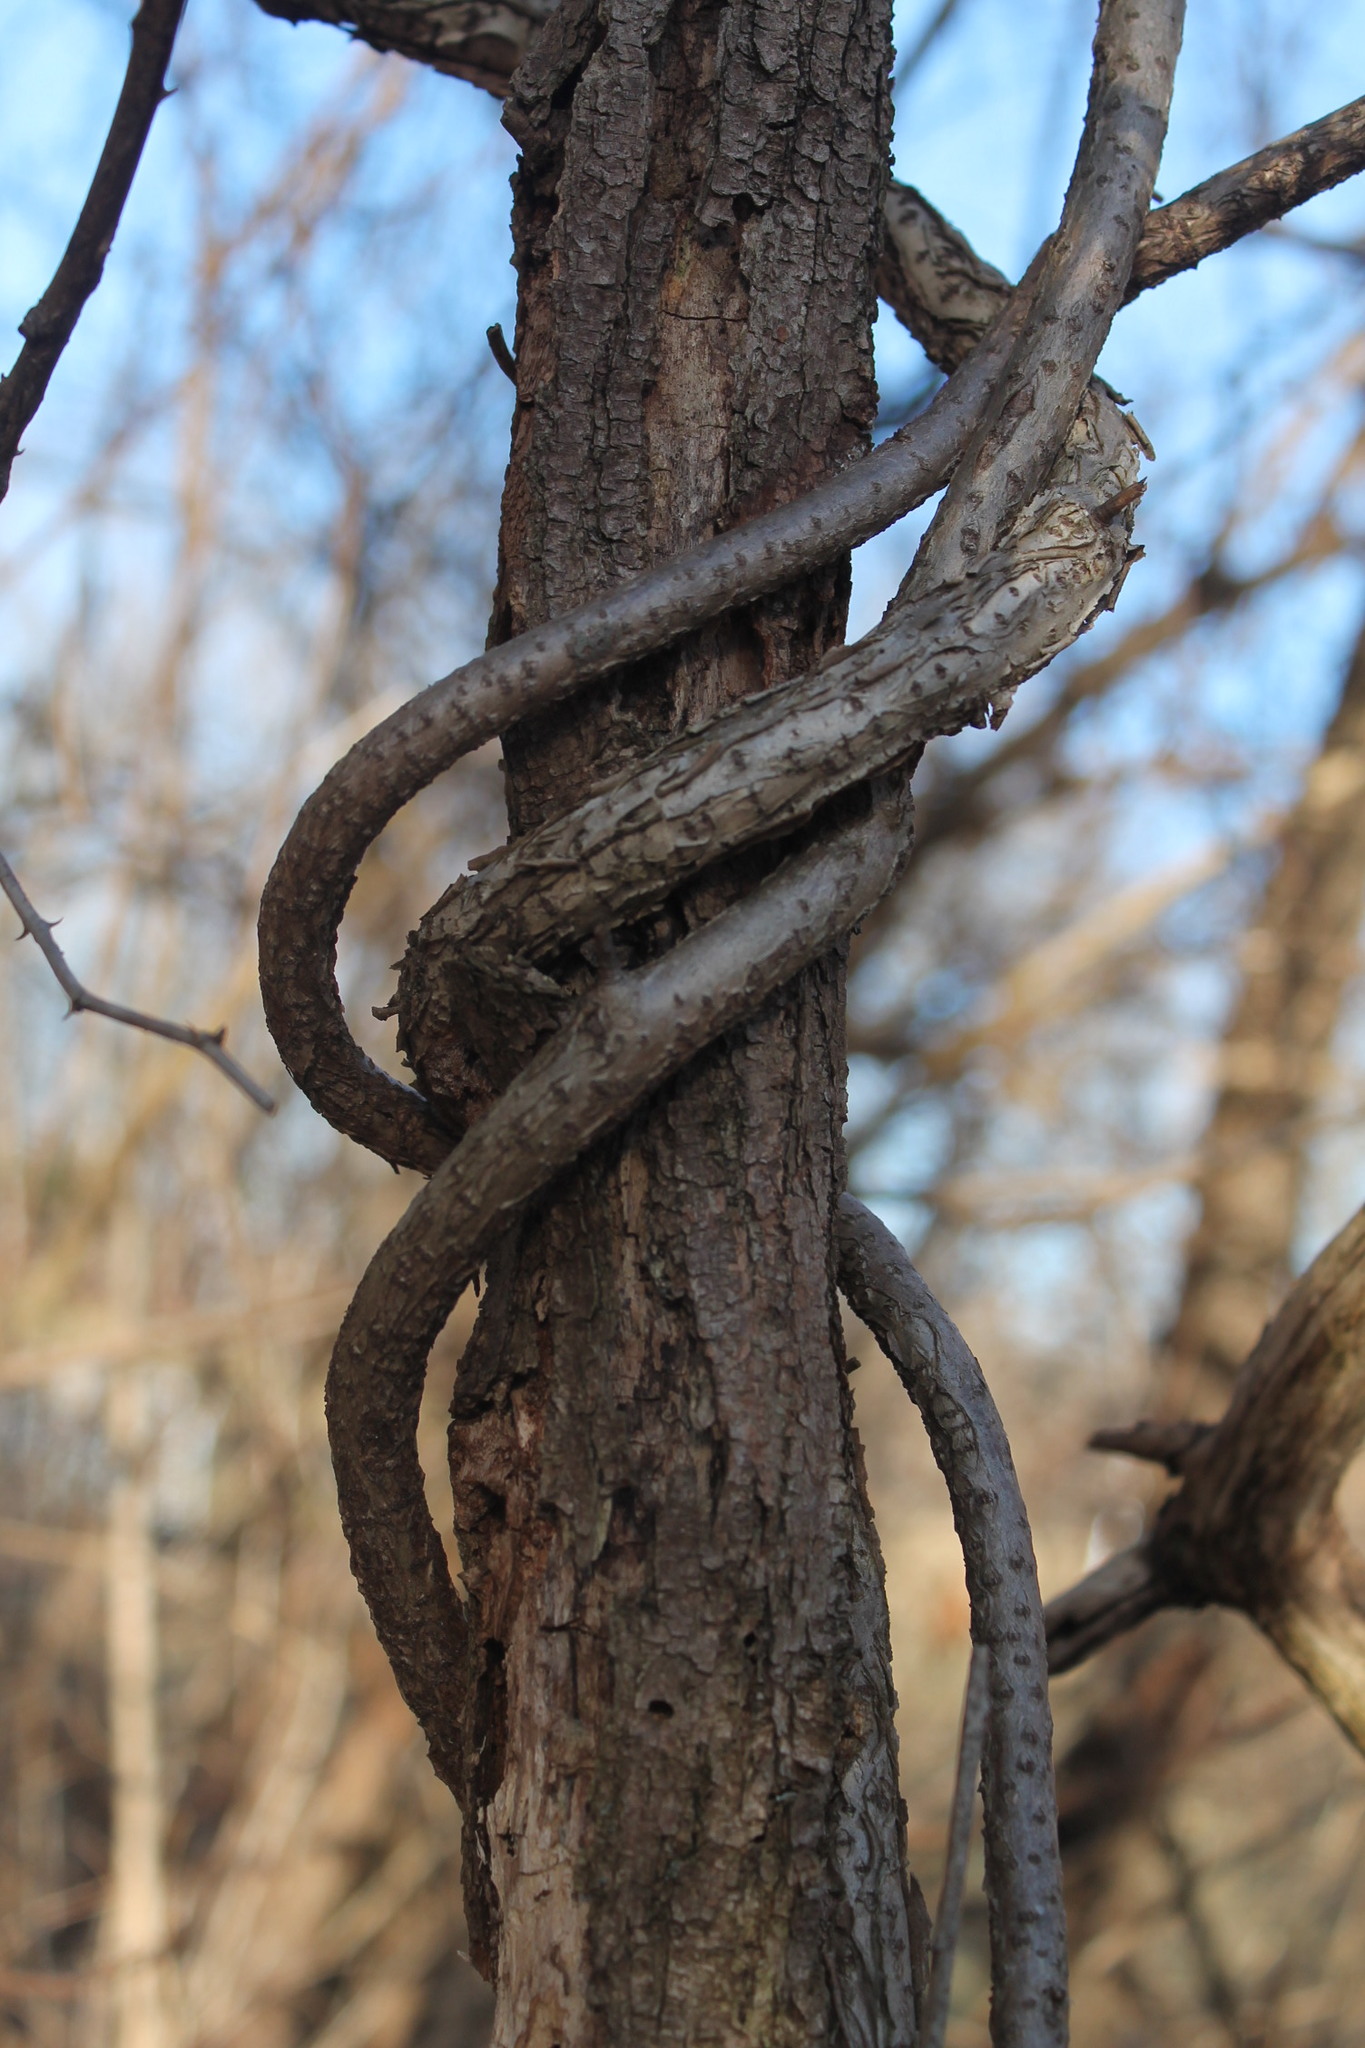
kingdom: Plantae
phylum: Tracheophyta
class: Magnoliopsida
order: Celastrales
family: Celastraceae
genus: Celastrus
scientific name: Celastrus orbiculatus
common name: Oriental bittersweet
